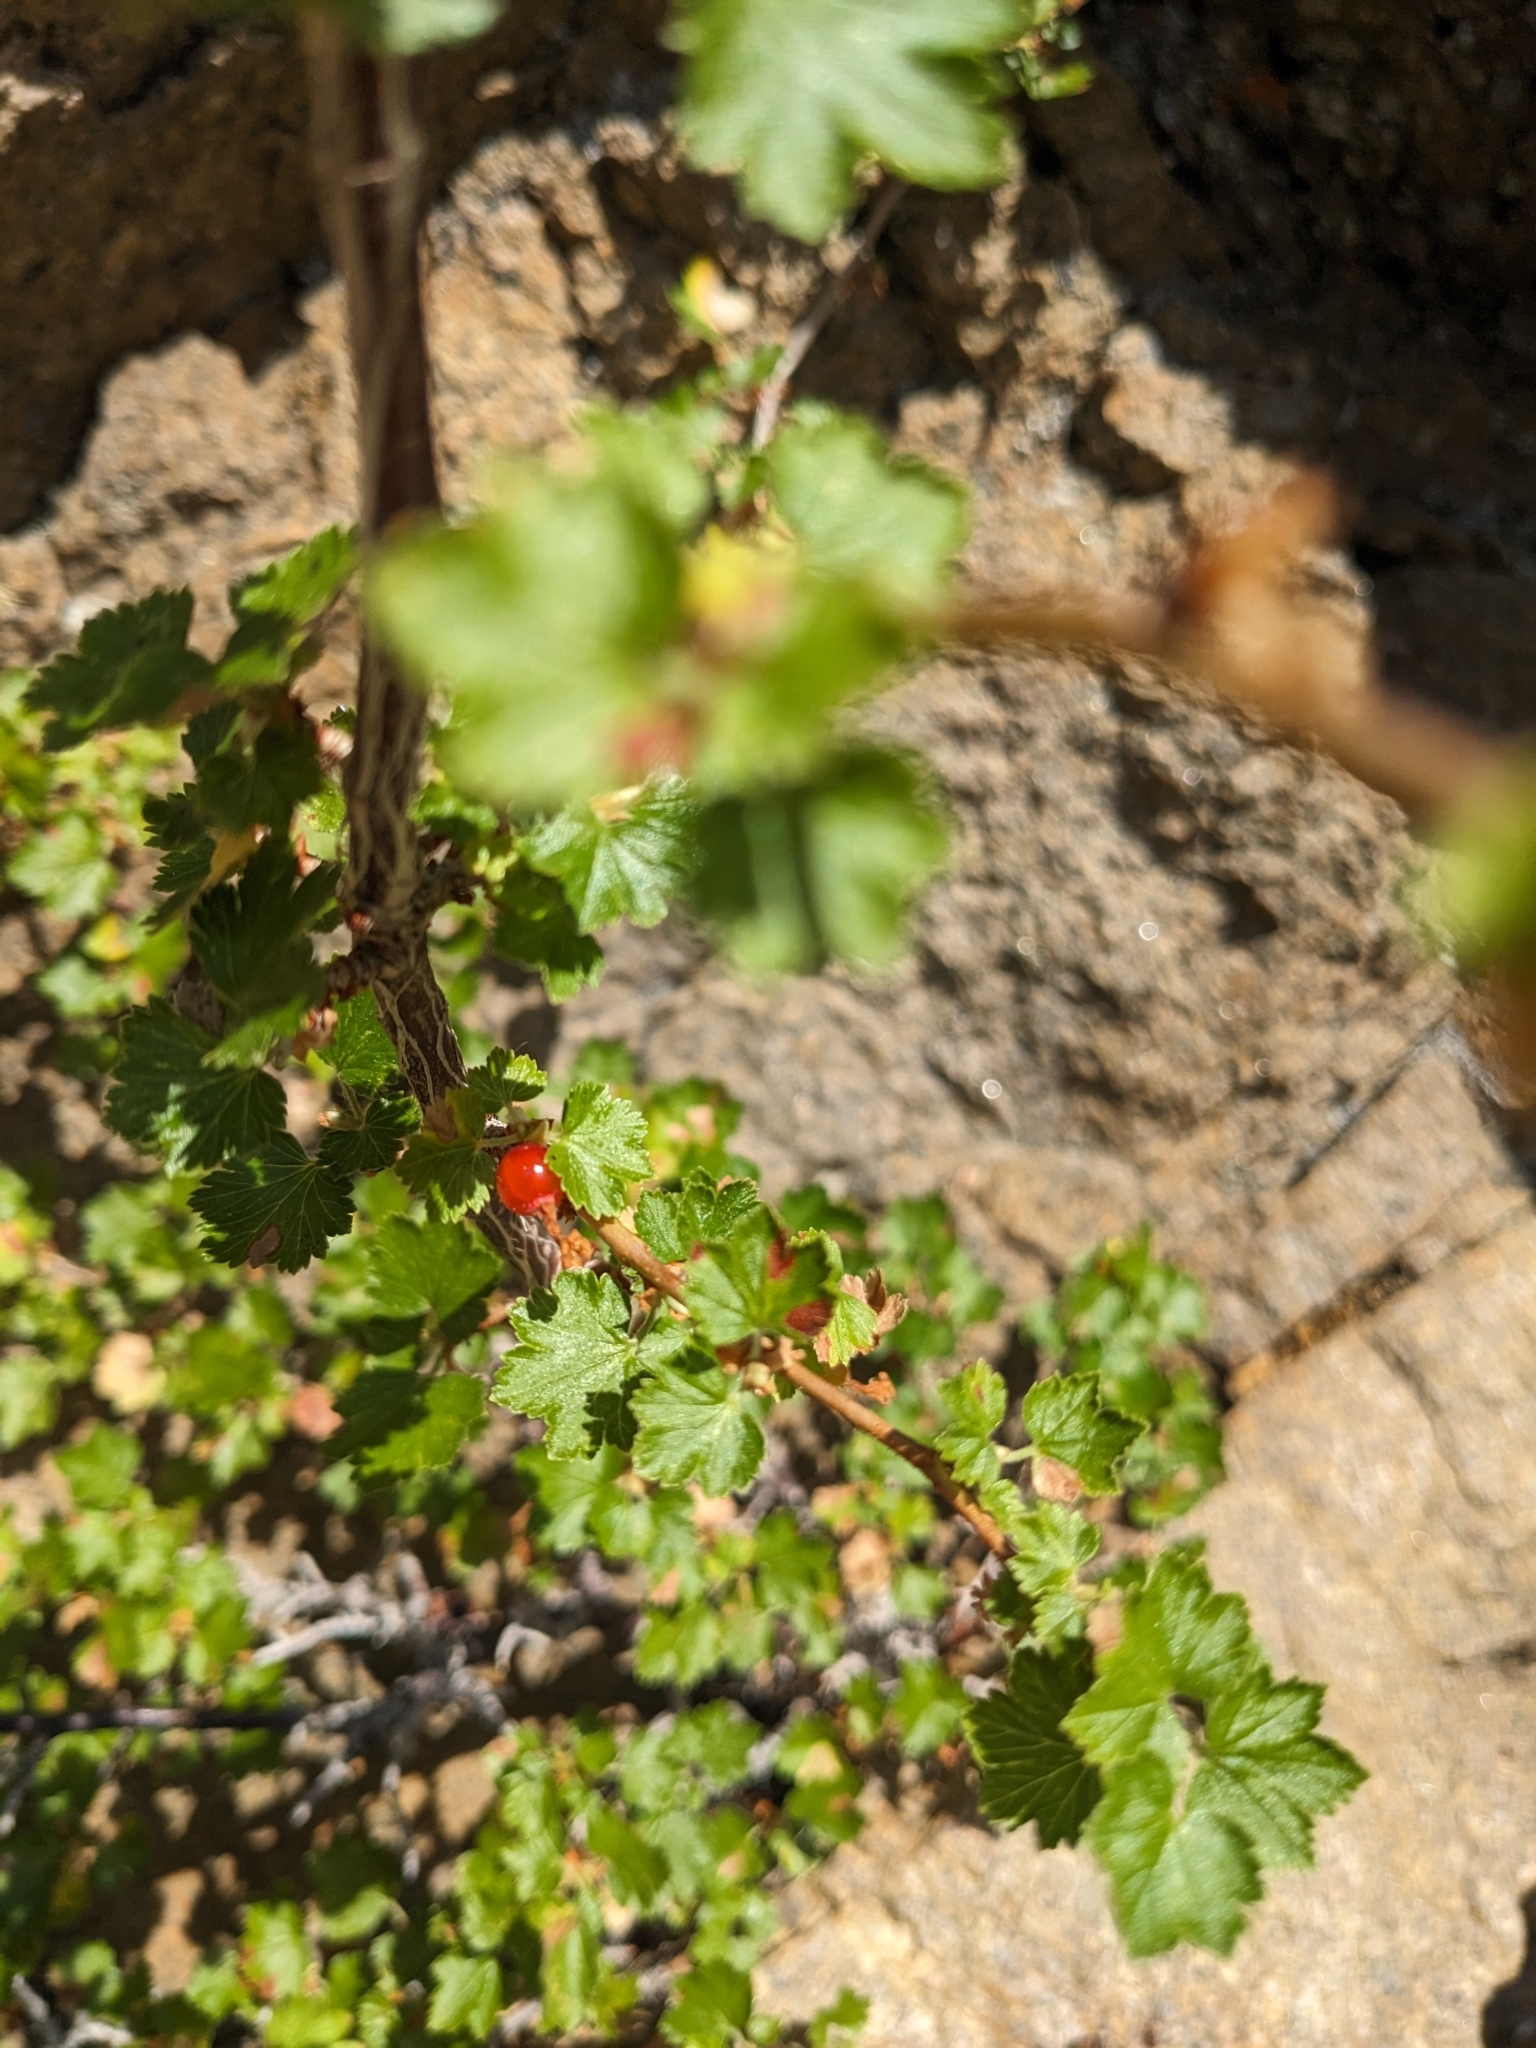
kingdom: Plantae
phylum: Tracheophyta
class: Magnoliopsida
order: Saxifragales
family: Grossulariaceae
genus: Ribes
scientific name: Ribes cereum
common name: Wax currant
